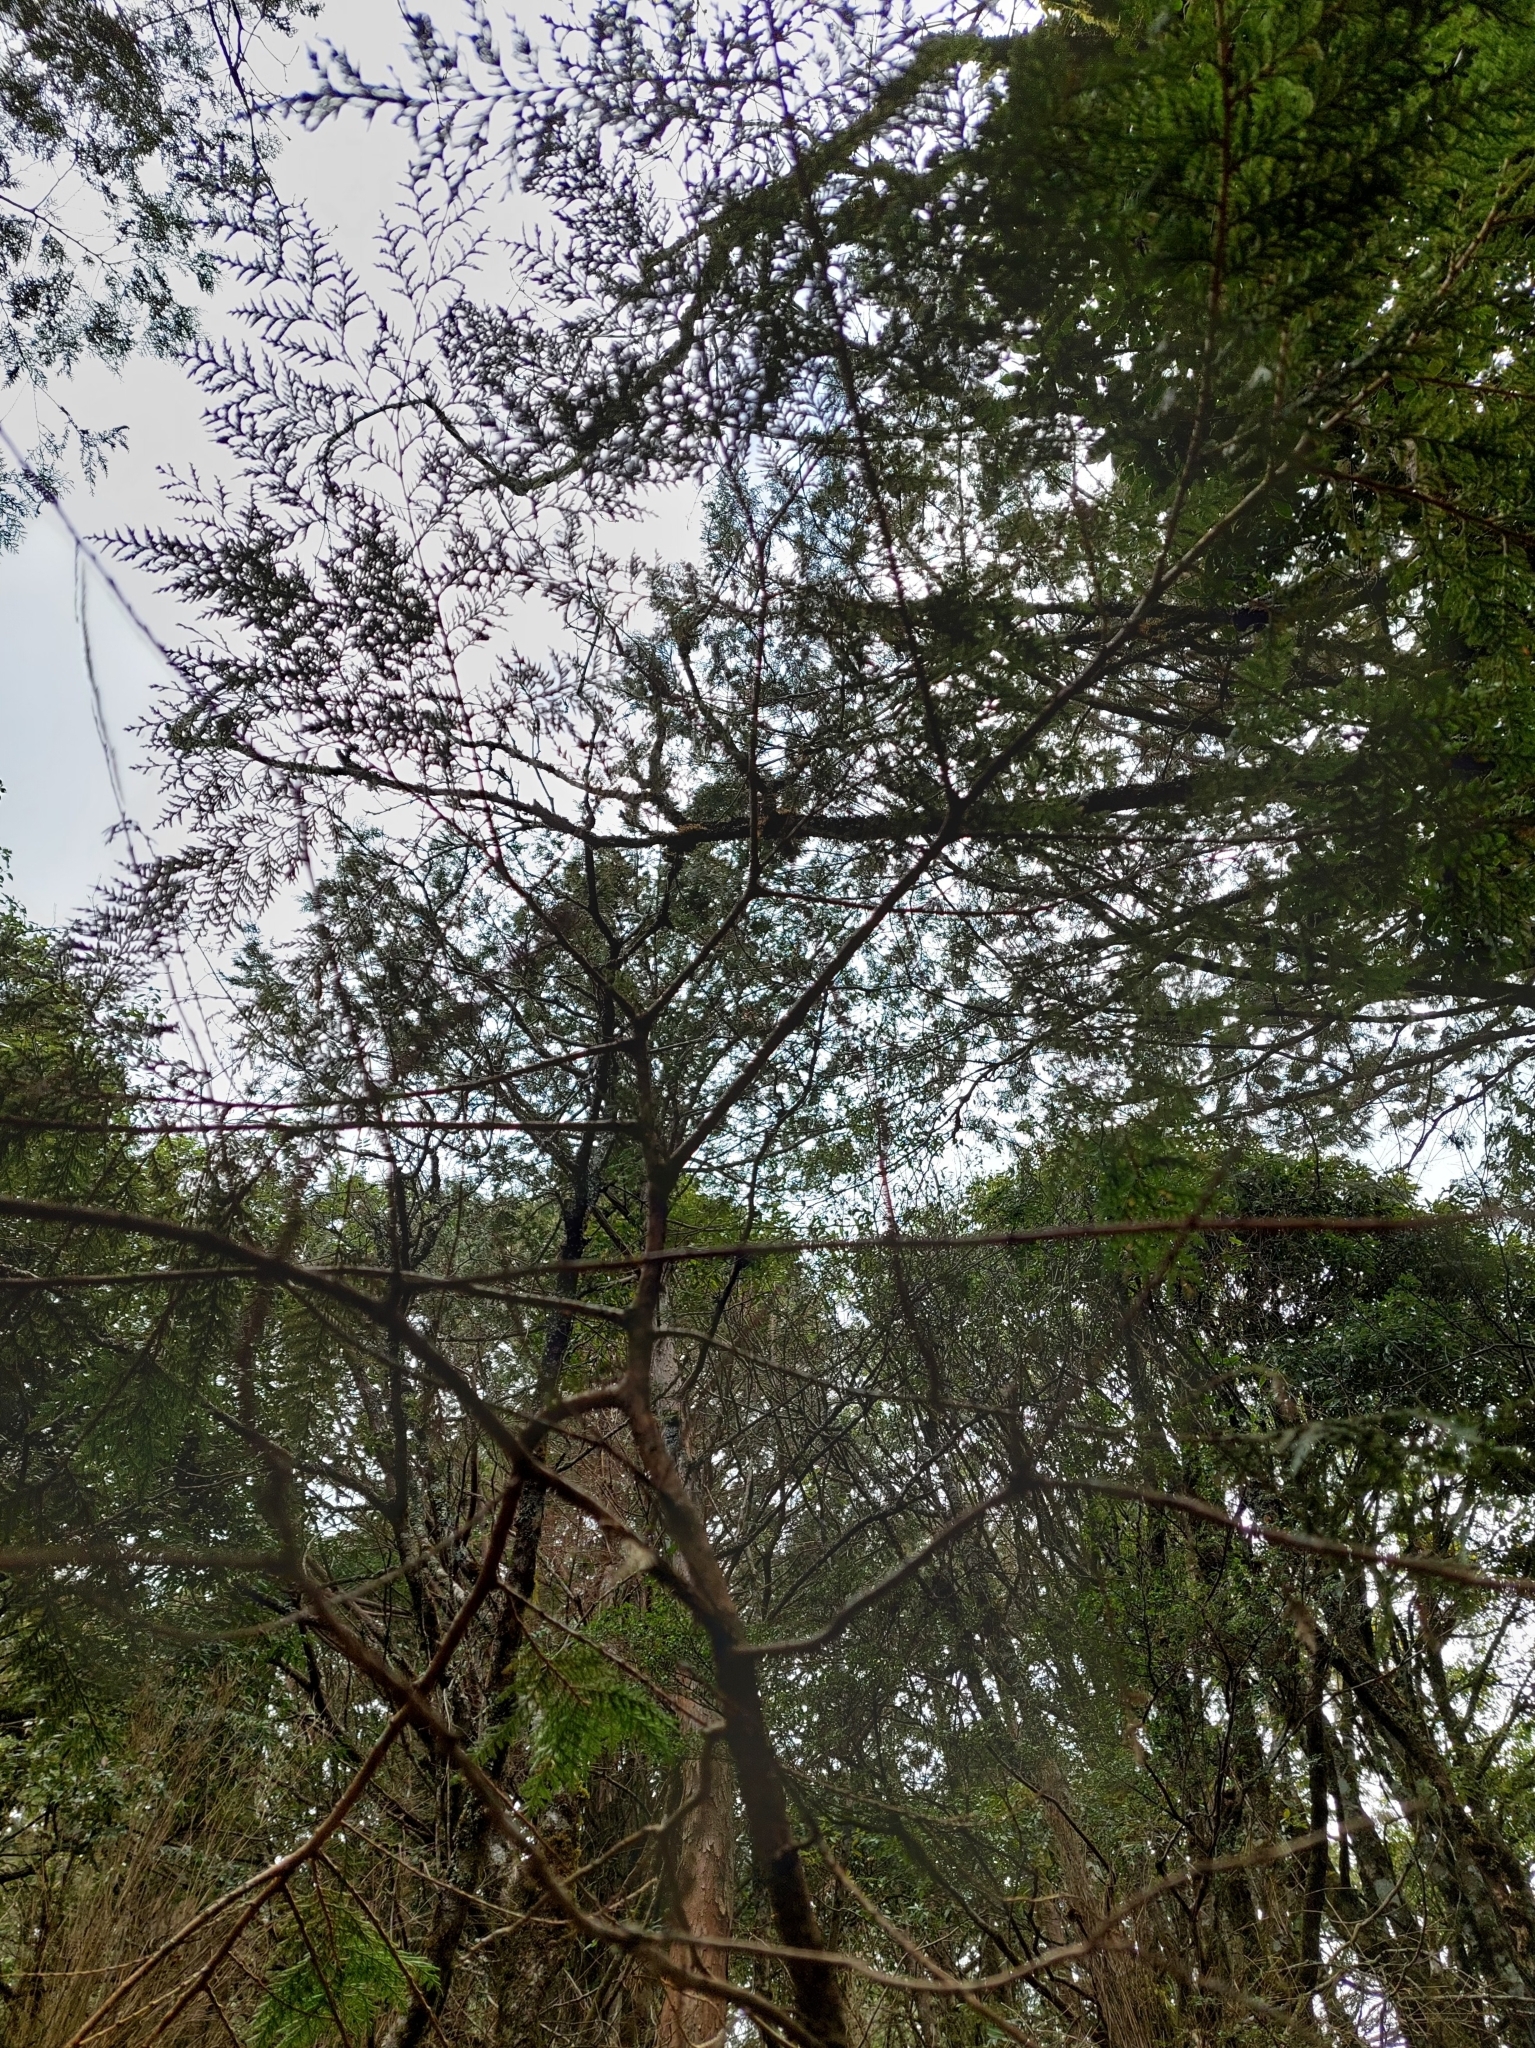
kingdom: Plantae
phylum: Tracheophyta
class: Pinopsida
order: Pinales
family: Cupressaceae
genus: Chamaecyparis
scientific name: Chamaecyparis formosensis
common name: Formosan cypress
